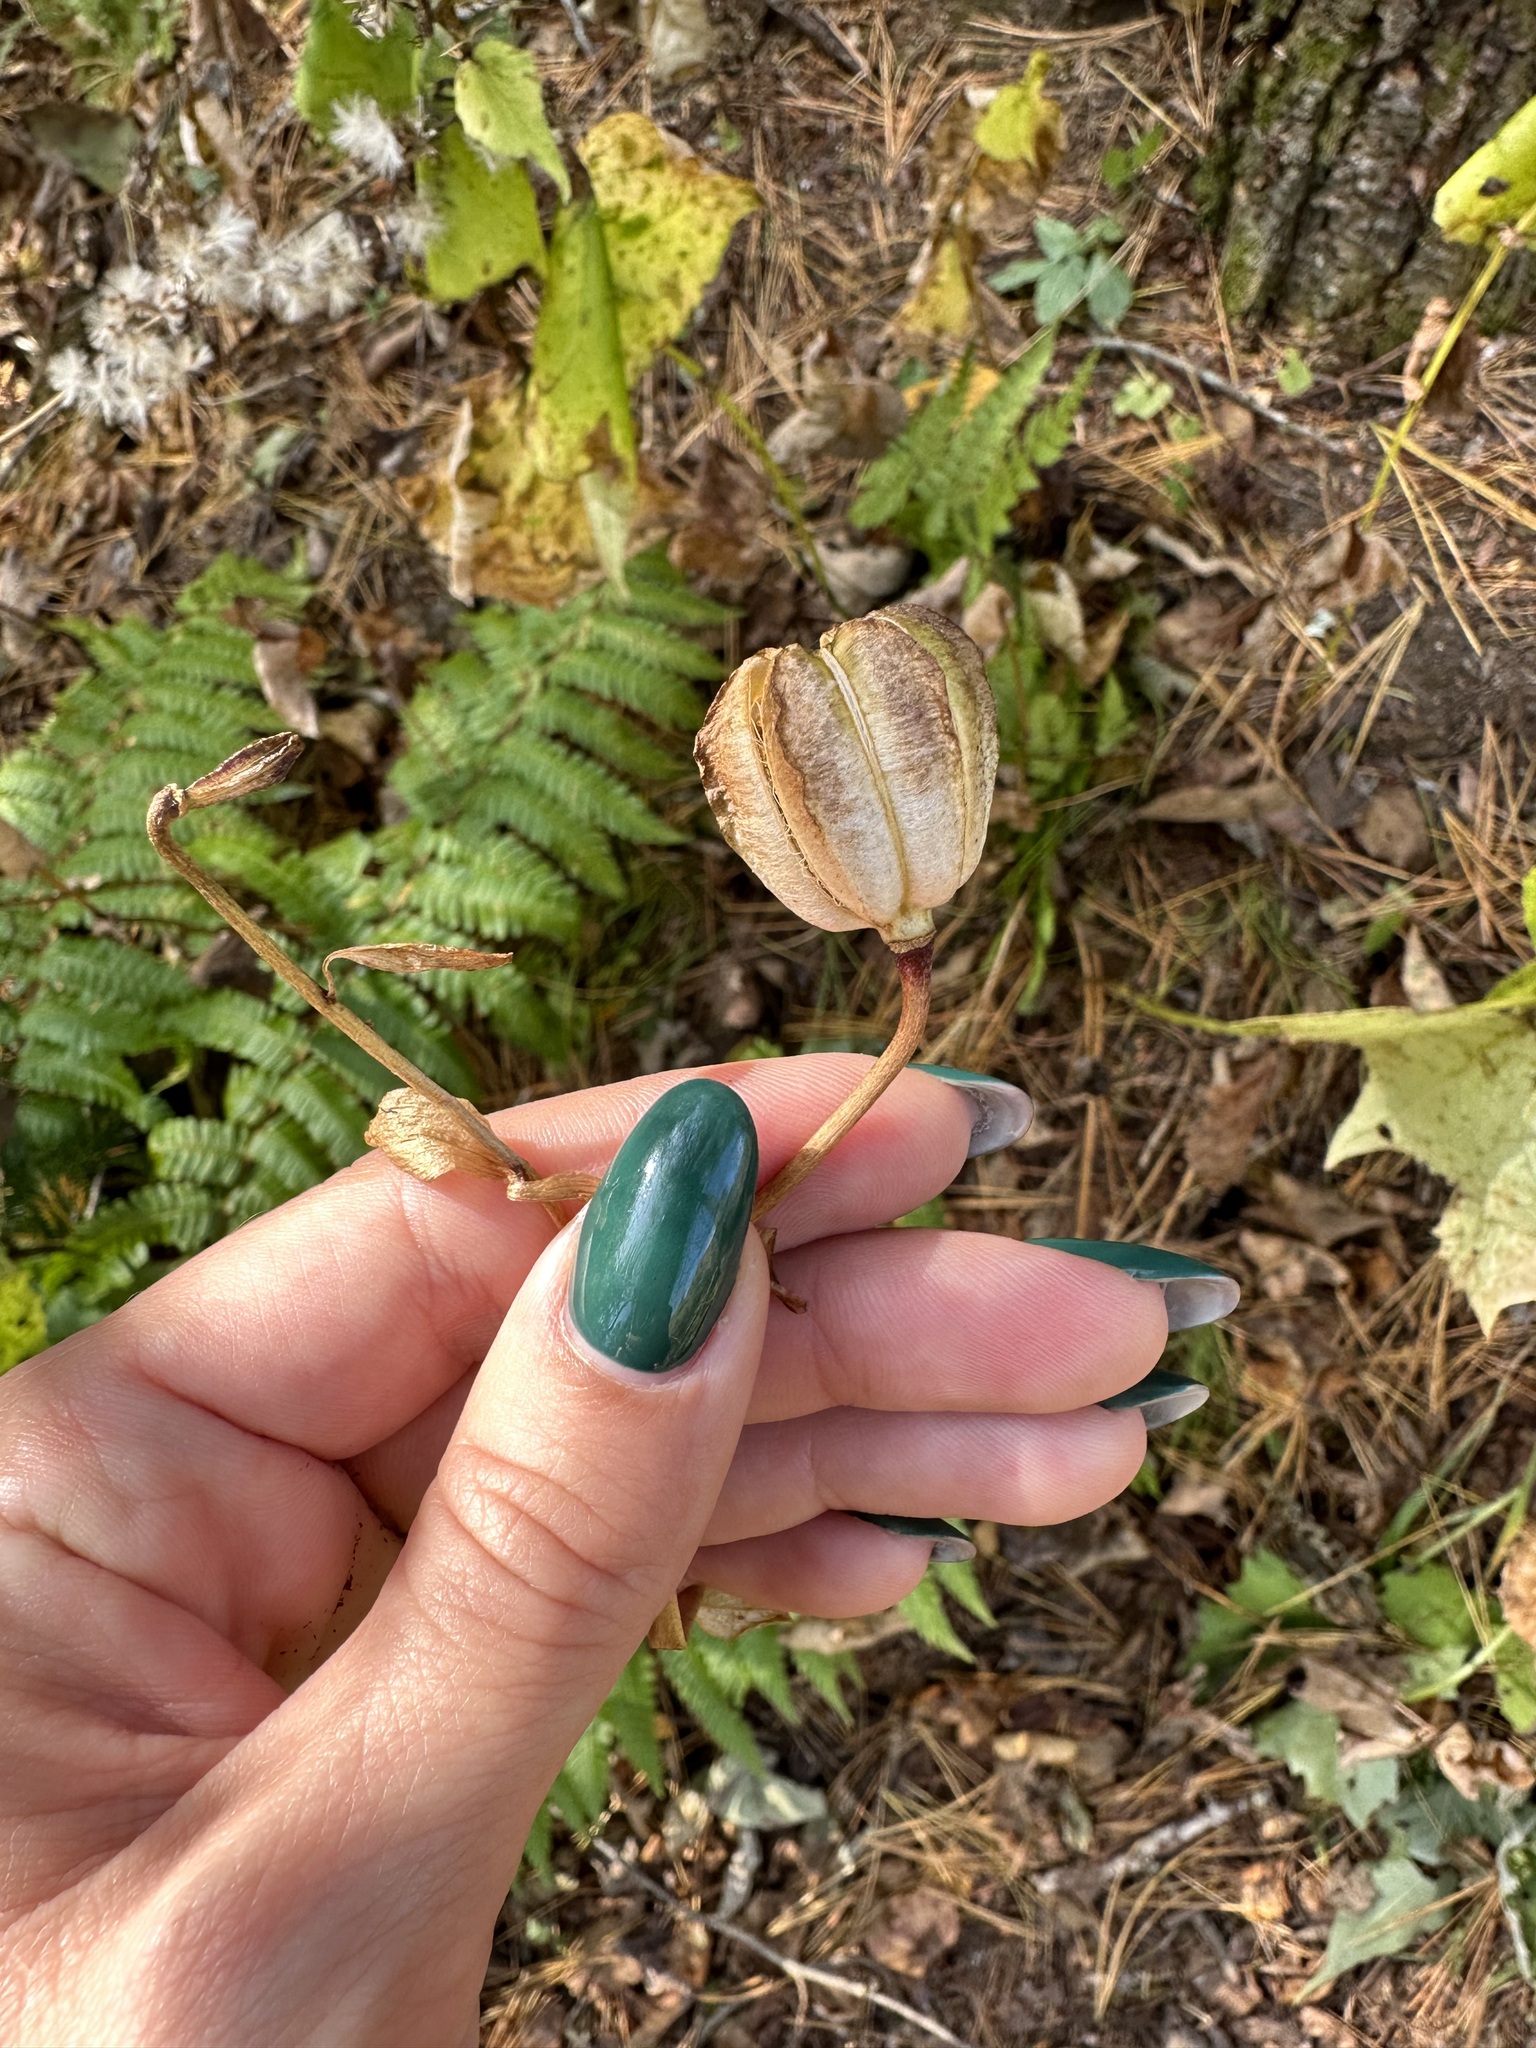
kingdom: Plantae
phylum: Tracheophyta
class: Liliopsida
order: Liliales
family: Liliaceae
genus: Lilium
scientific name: Lilium distichum
